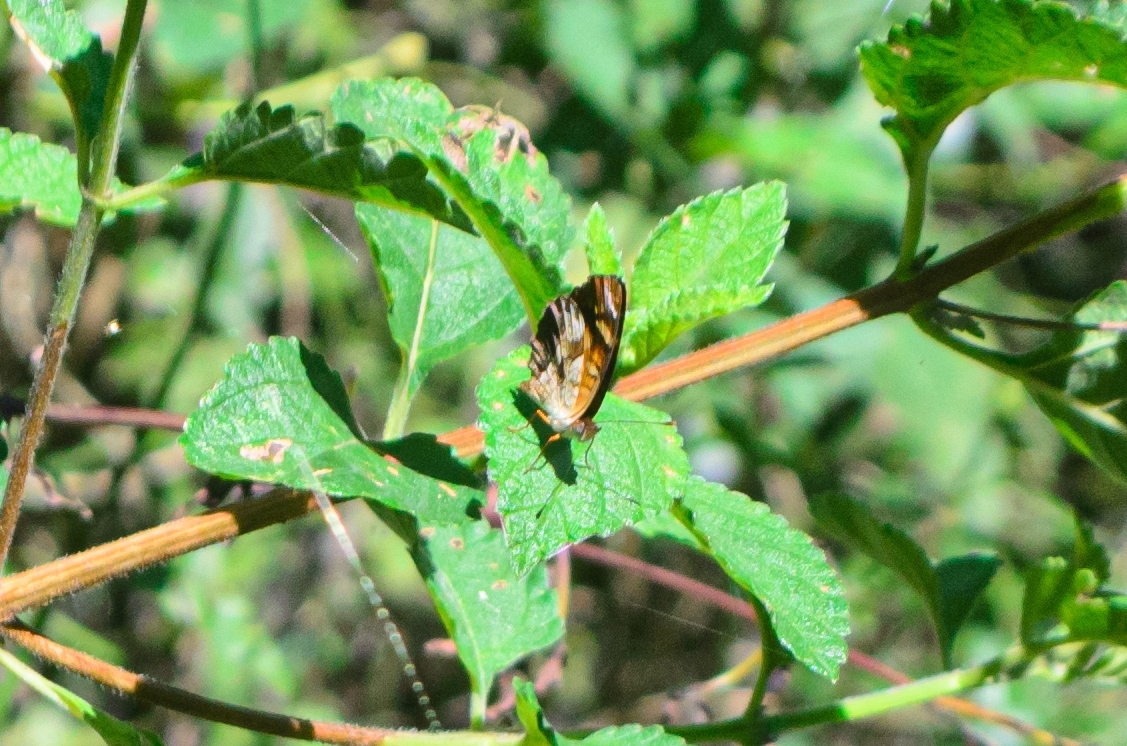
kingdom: Animalia
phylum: Arthropoda
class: Insecta
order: Lepidoptera
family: Nymphalidae
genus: Ortilia
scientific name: Ortilia orthia
